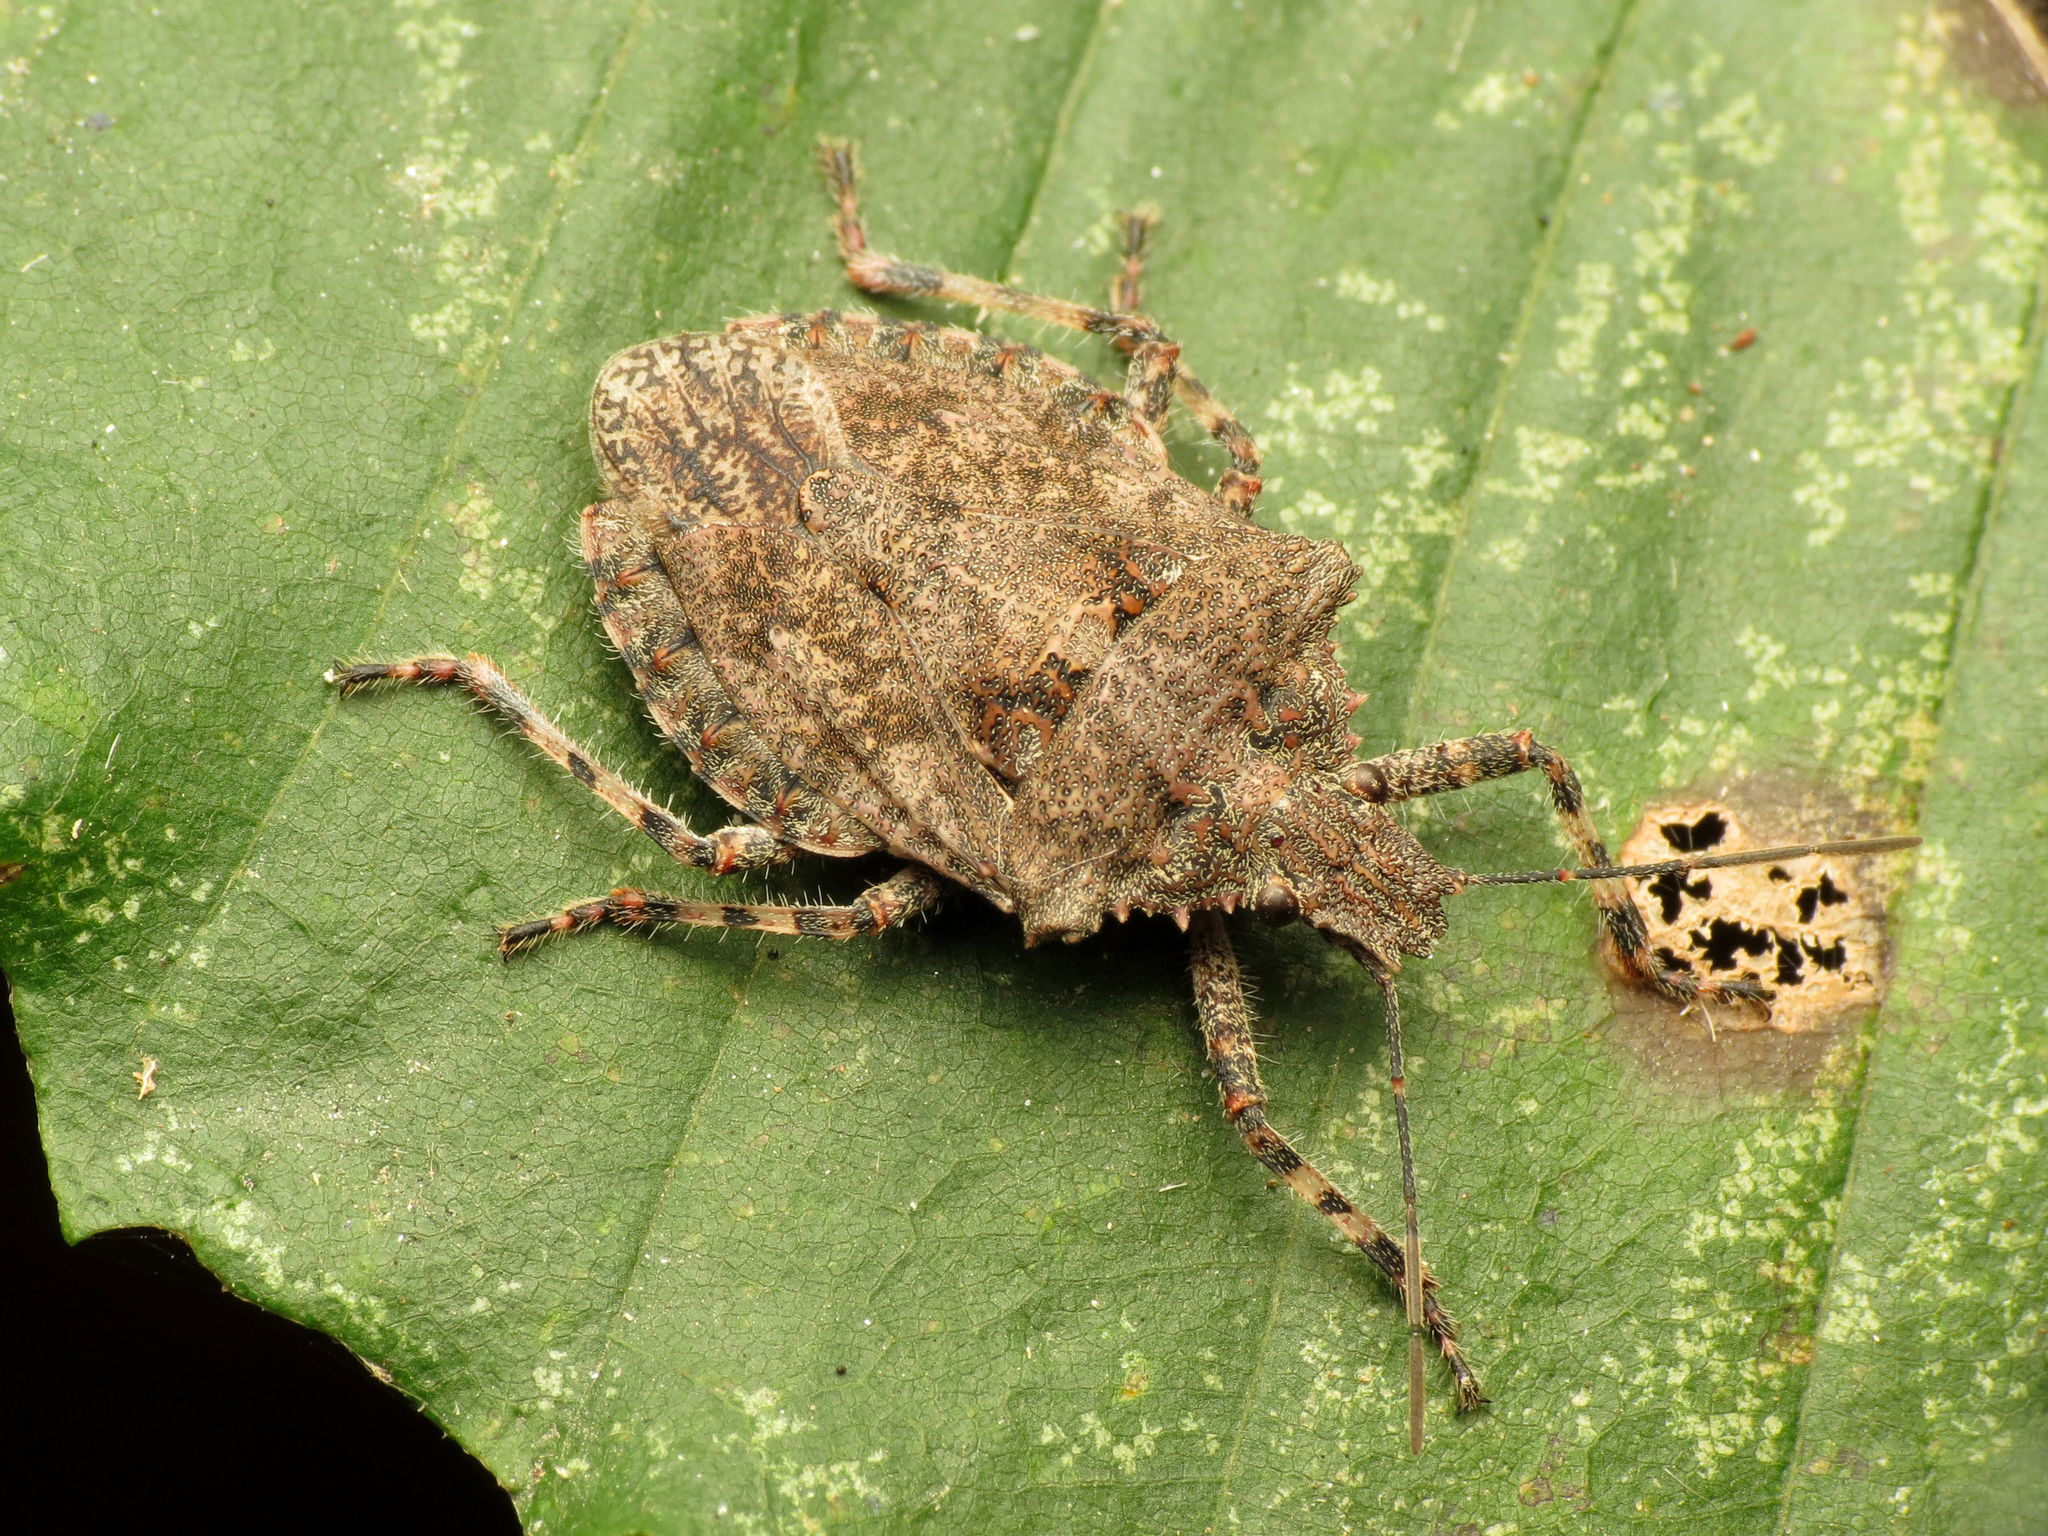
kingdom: Animalia
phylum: Arthropoda
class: Insecta
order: Hemiptera
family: Pentatomidae
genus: Brochymena
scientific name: Brochymena
